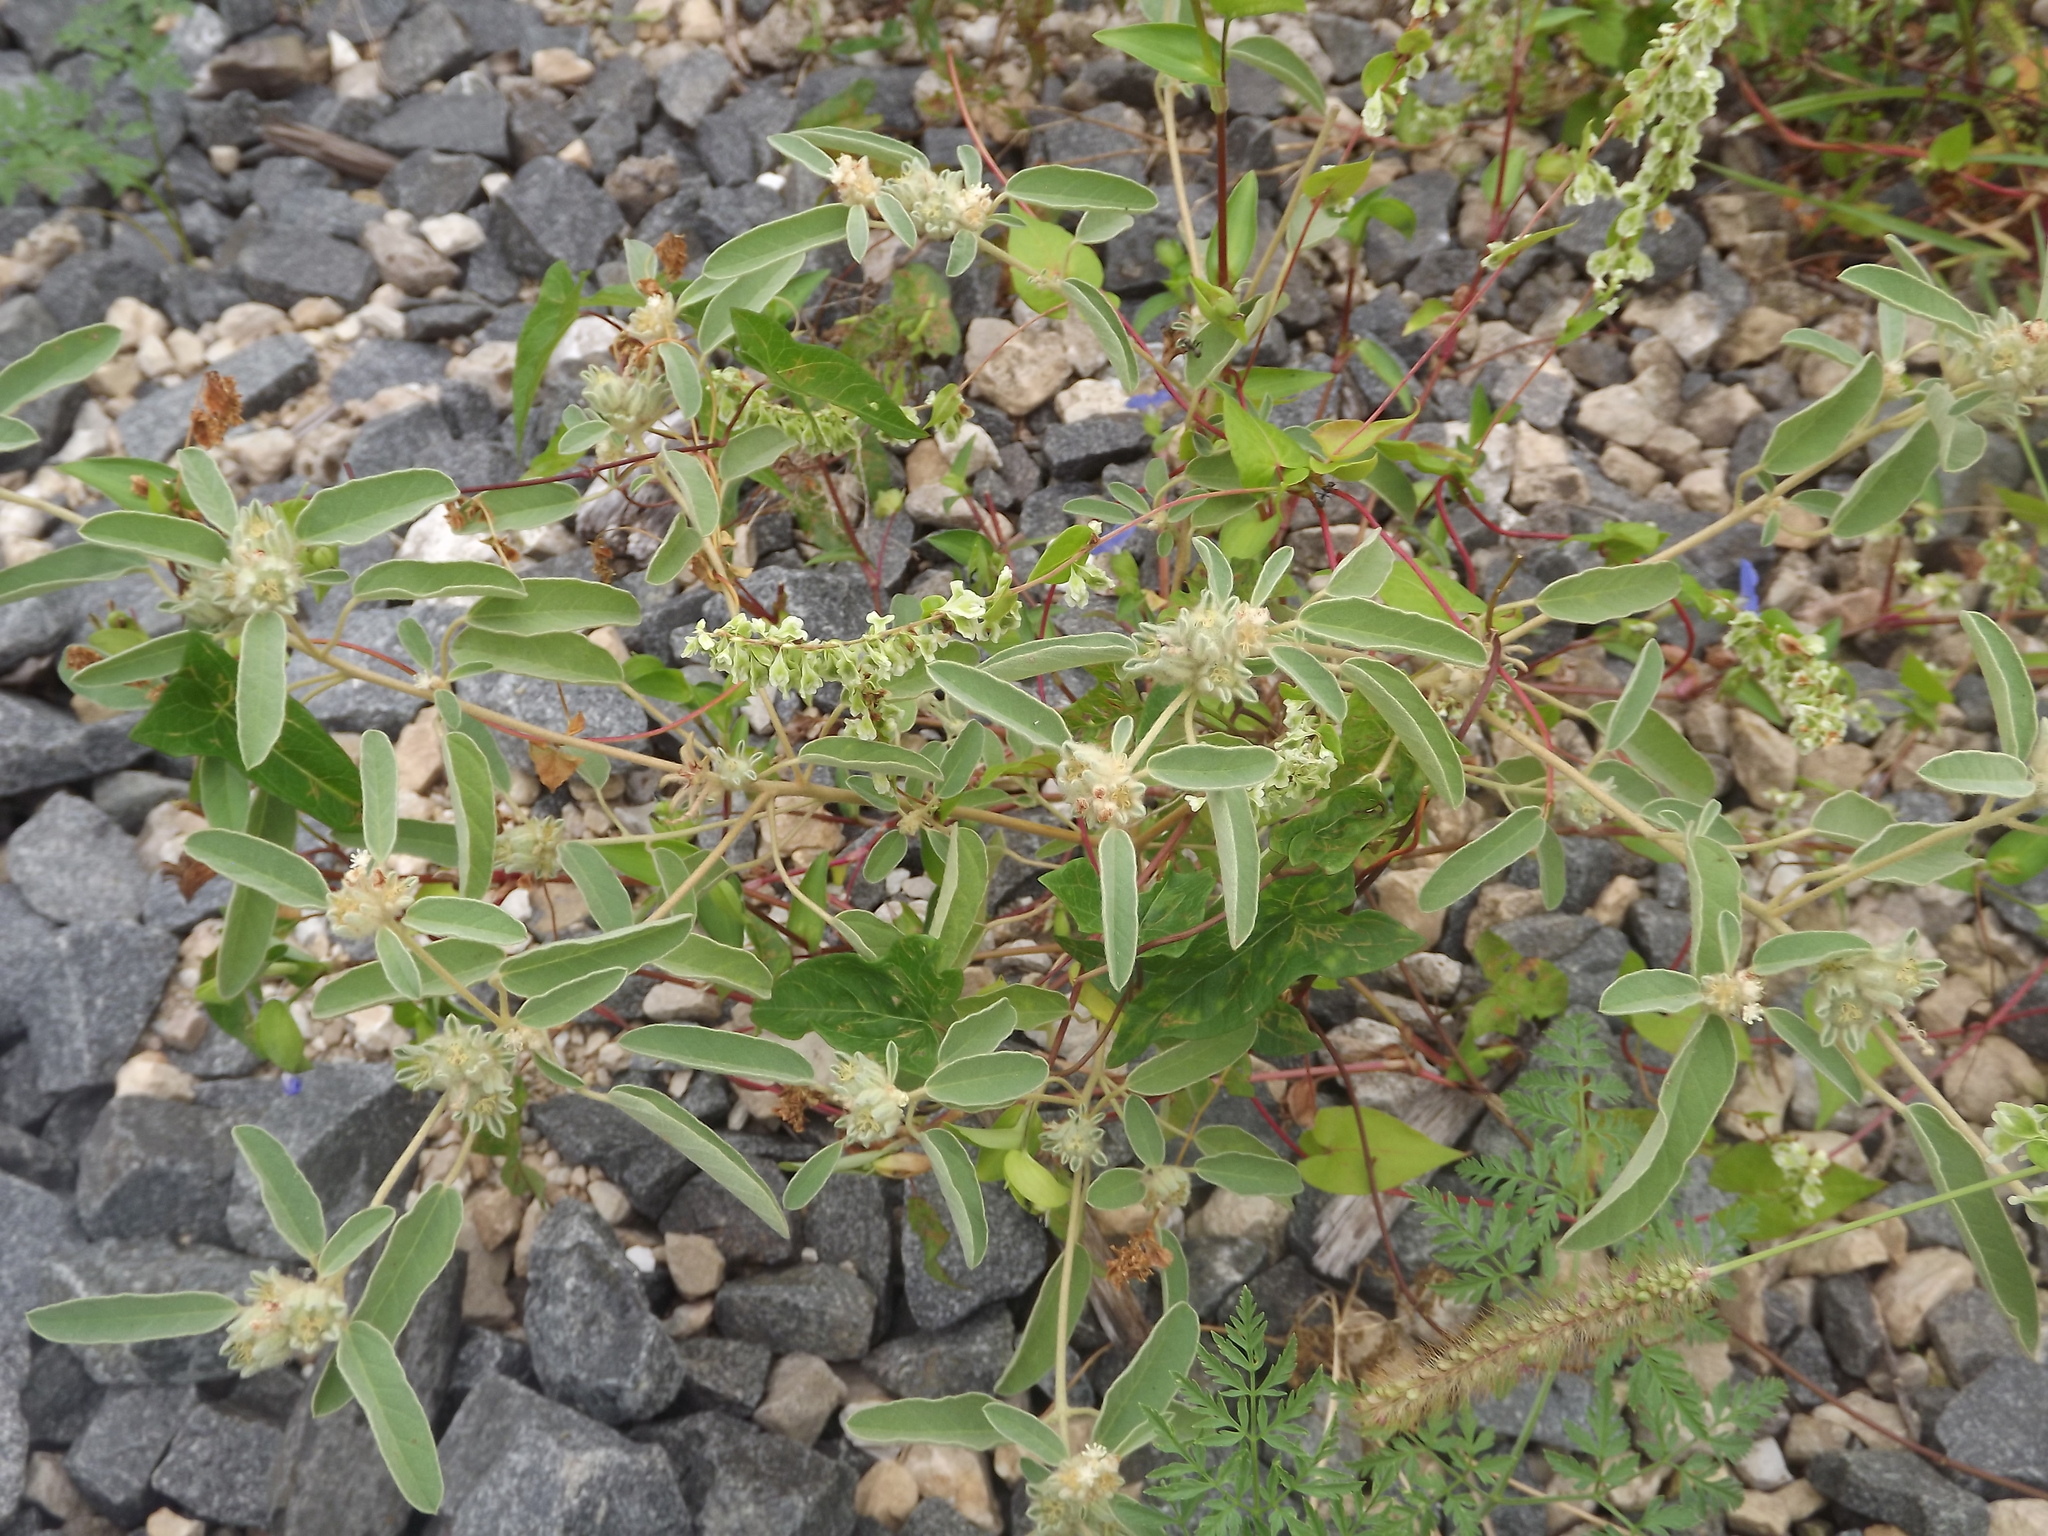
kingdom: Plantae
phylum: Tracheophyta
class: Magnoliopsida
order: Malpighiales
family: Euphorbiaceae
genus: Croton
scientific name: Croton capitatus
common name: Woolly croton
